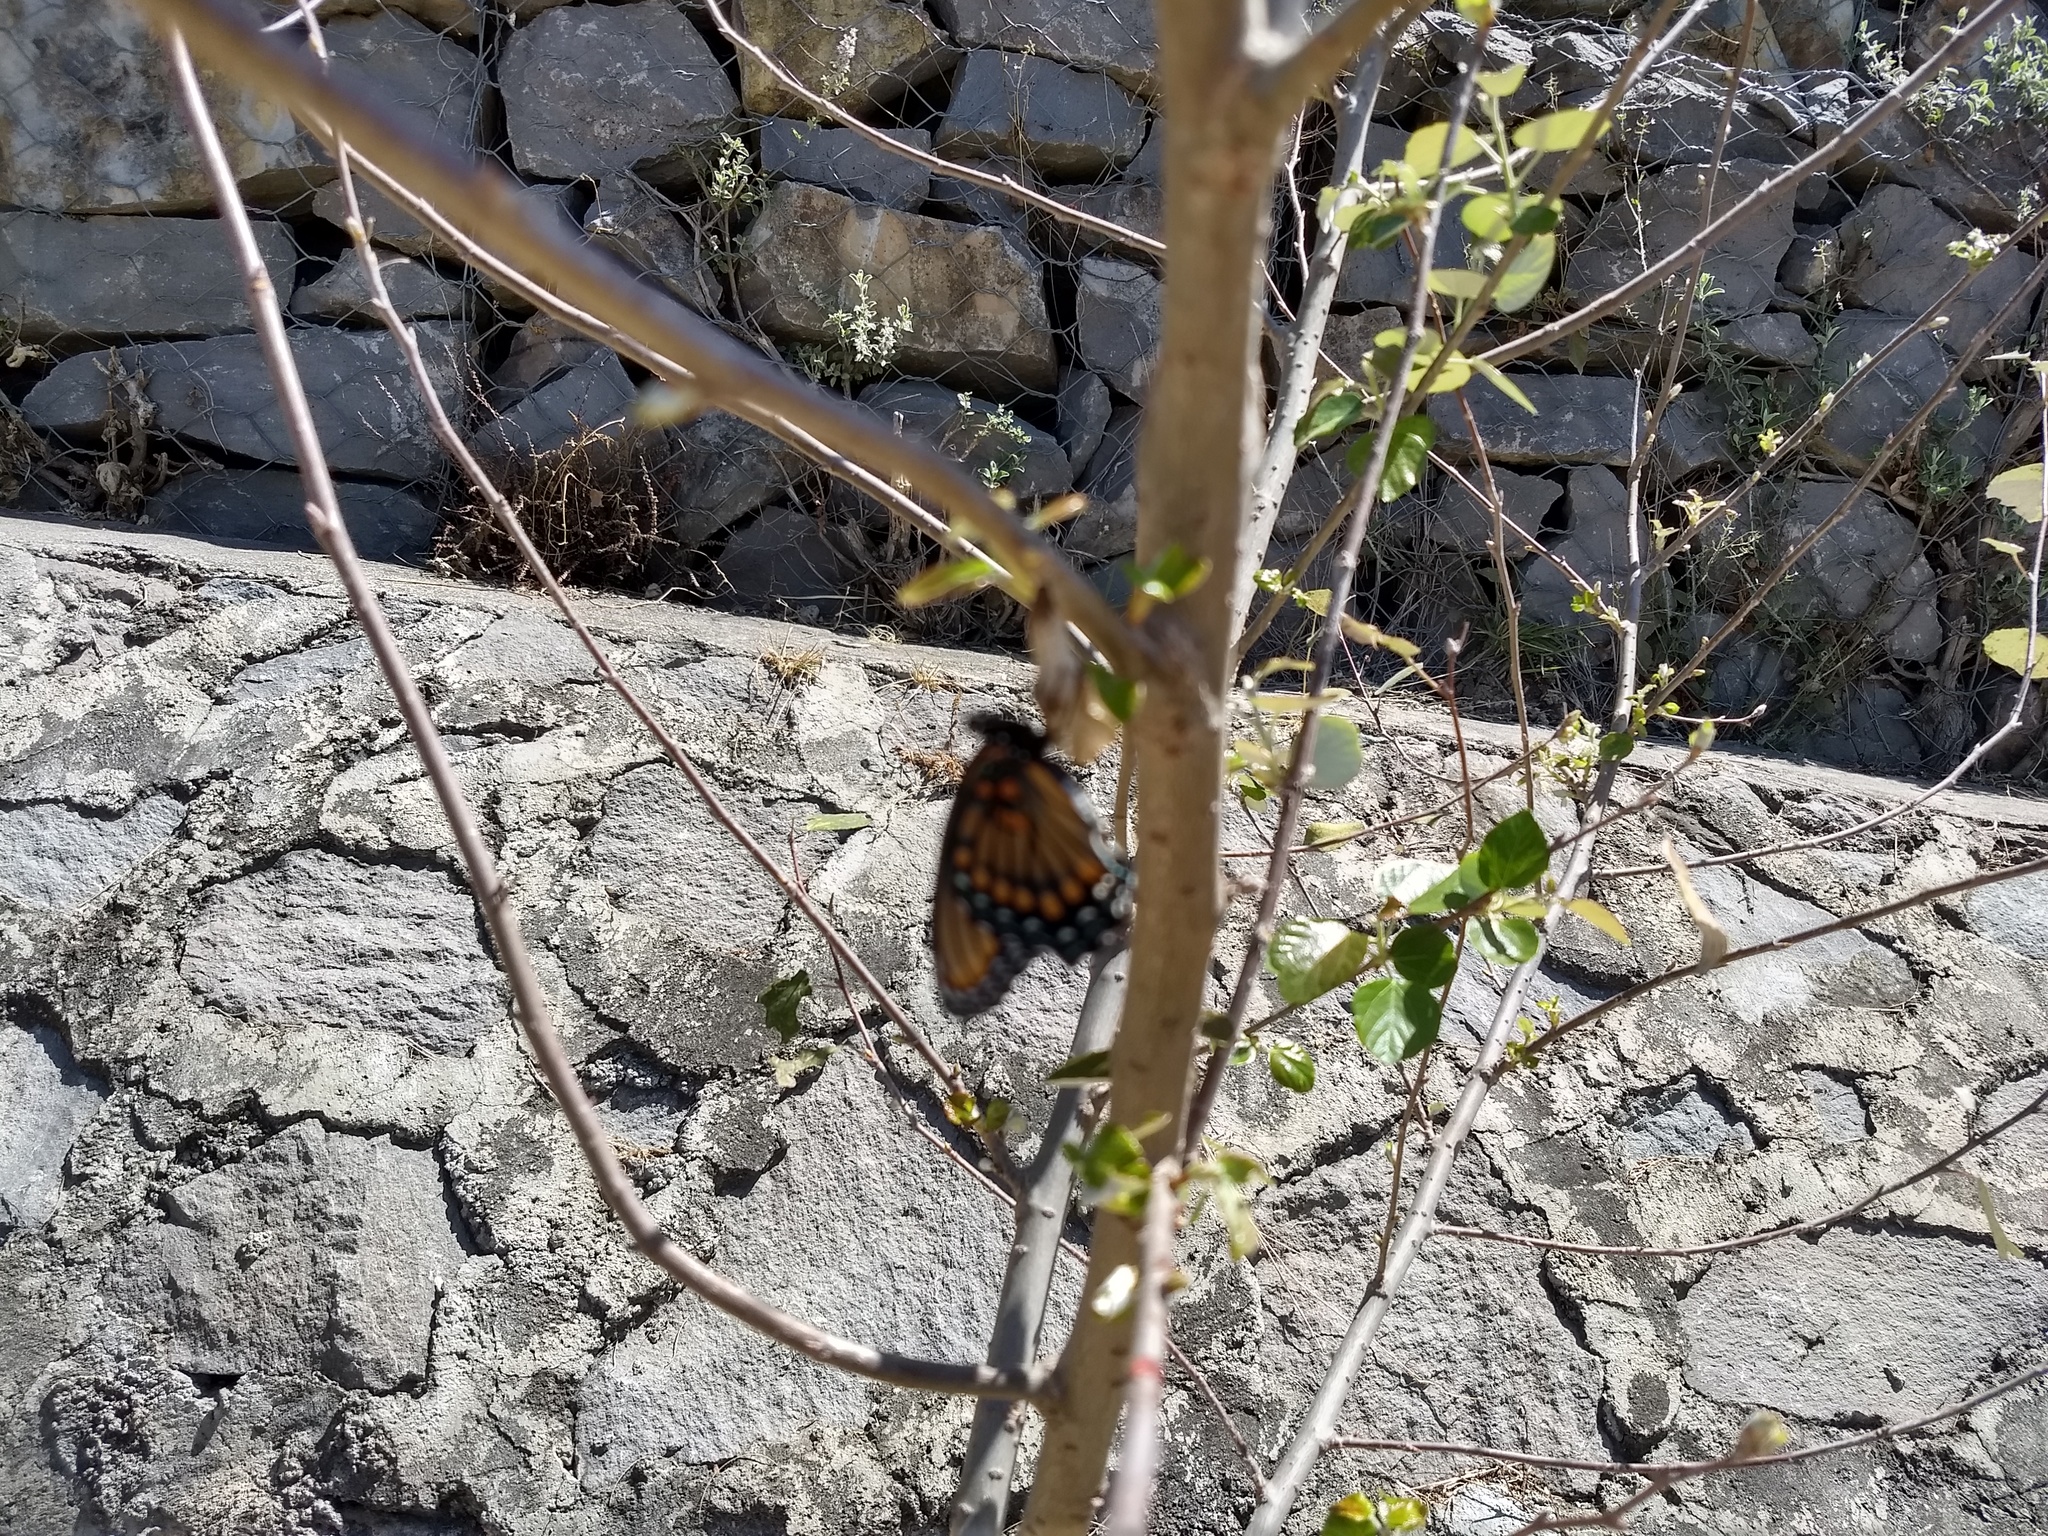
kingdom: Animalia
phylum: Arthropoda
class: Insecta
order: Lepidoptera
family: Nymphalidae
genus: Limenitis
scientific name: Limenitis arthemis
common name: Red-spotted admiral
